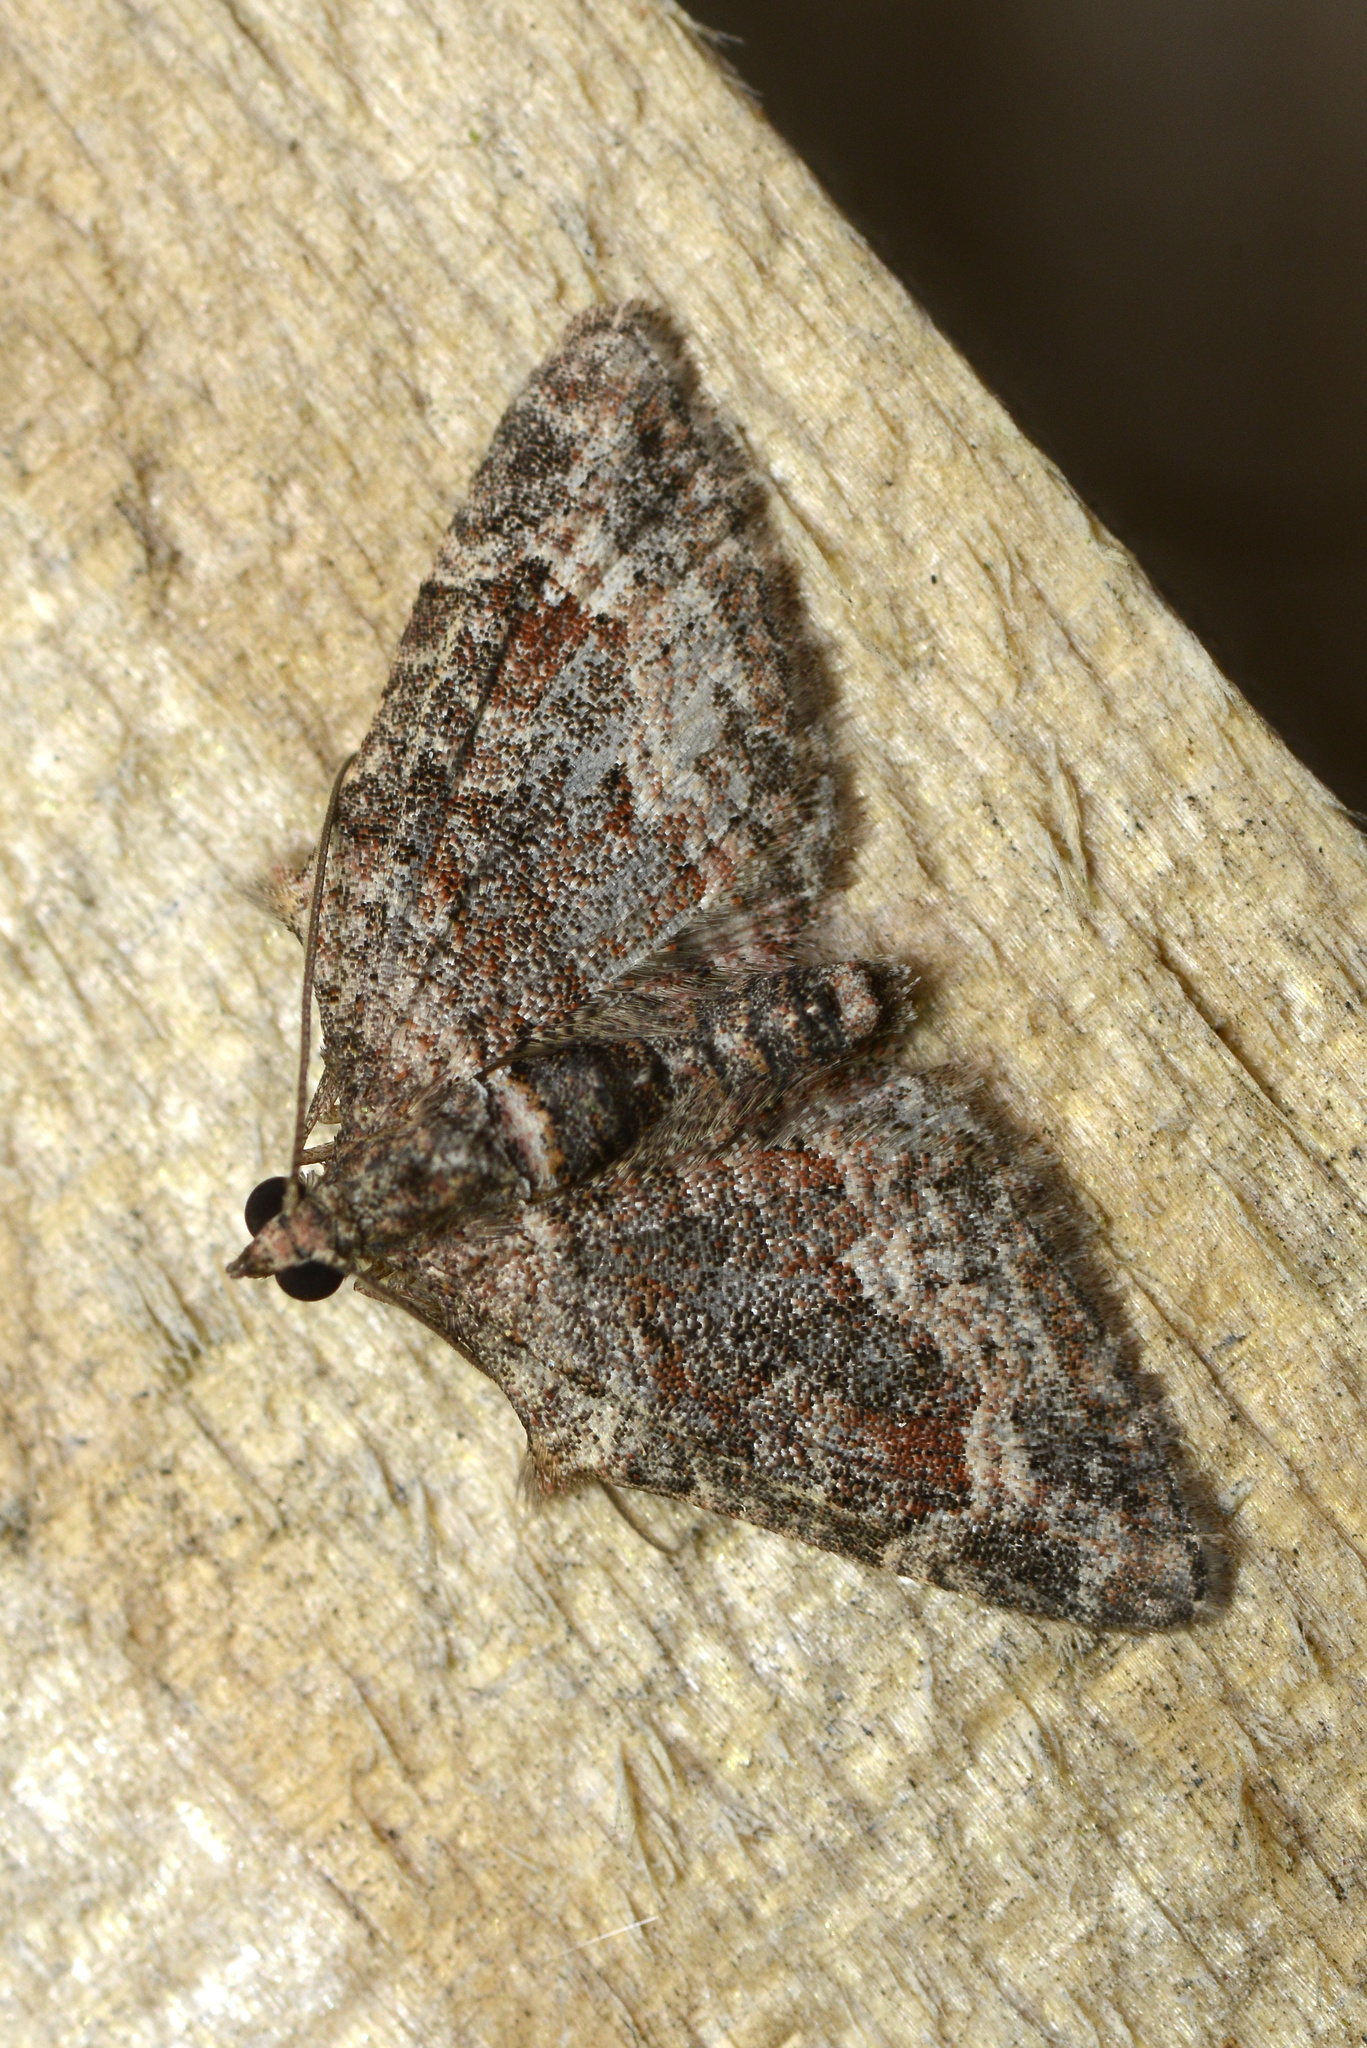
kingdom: Animalia
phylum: Arthropoda
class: Insecta
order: Lepidoptera
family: Geometridae
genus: Phrissogonus
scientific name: Phrissogonus laticostata
